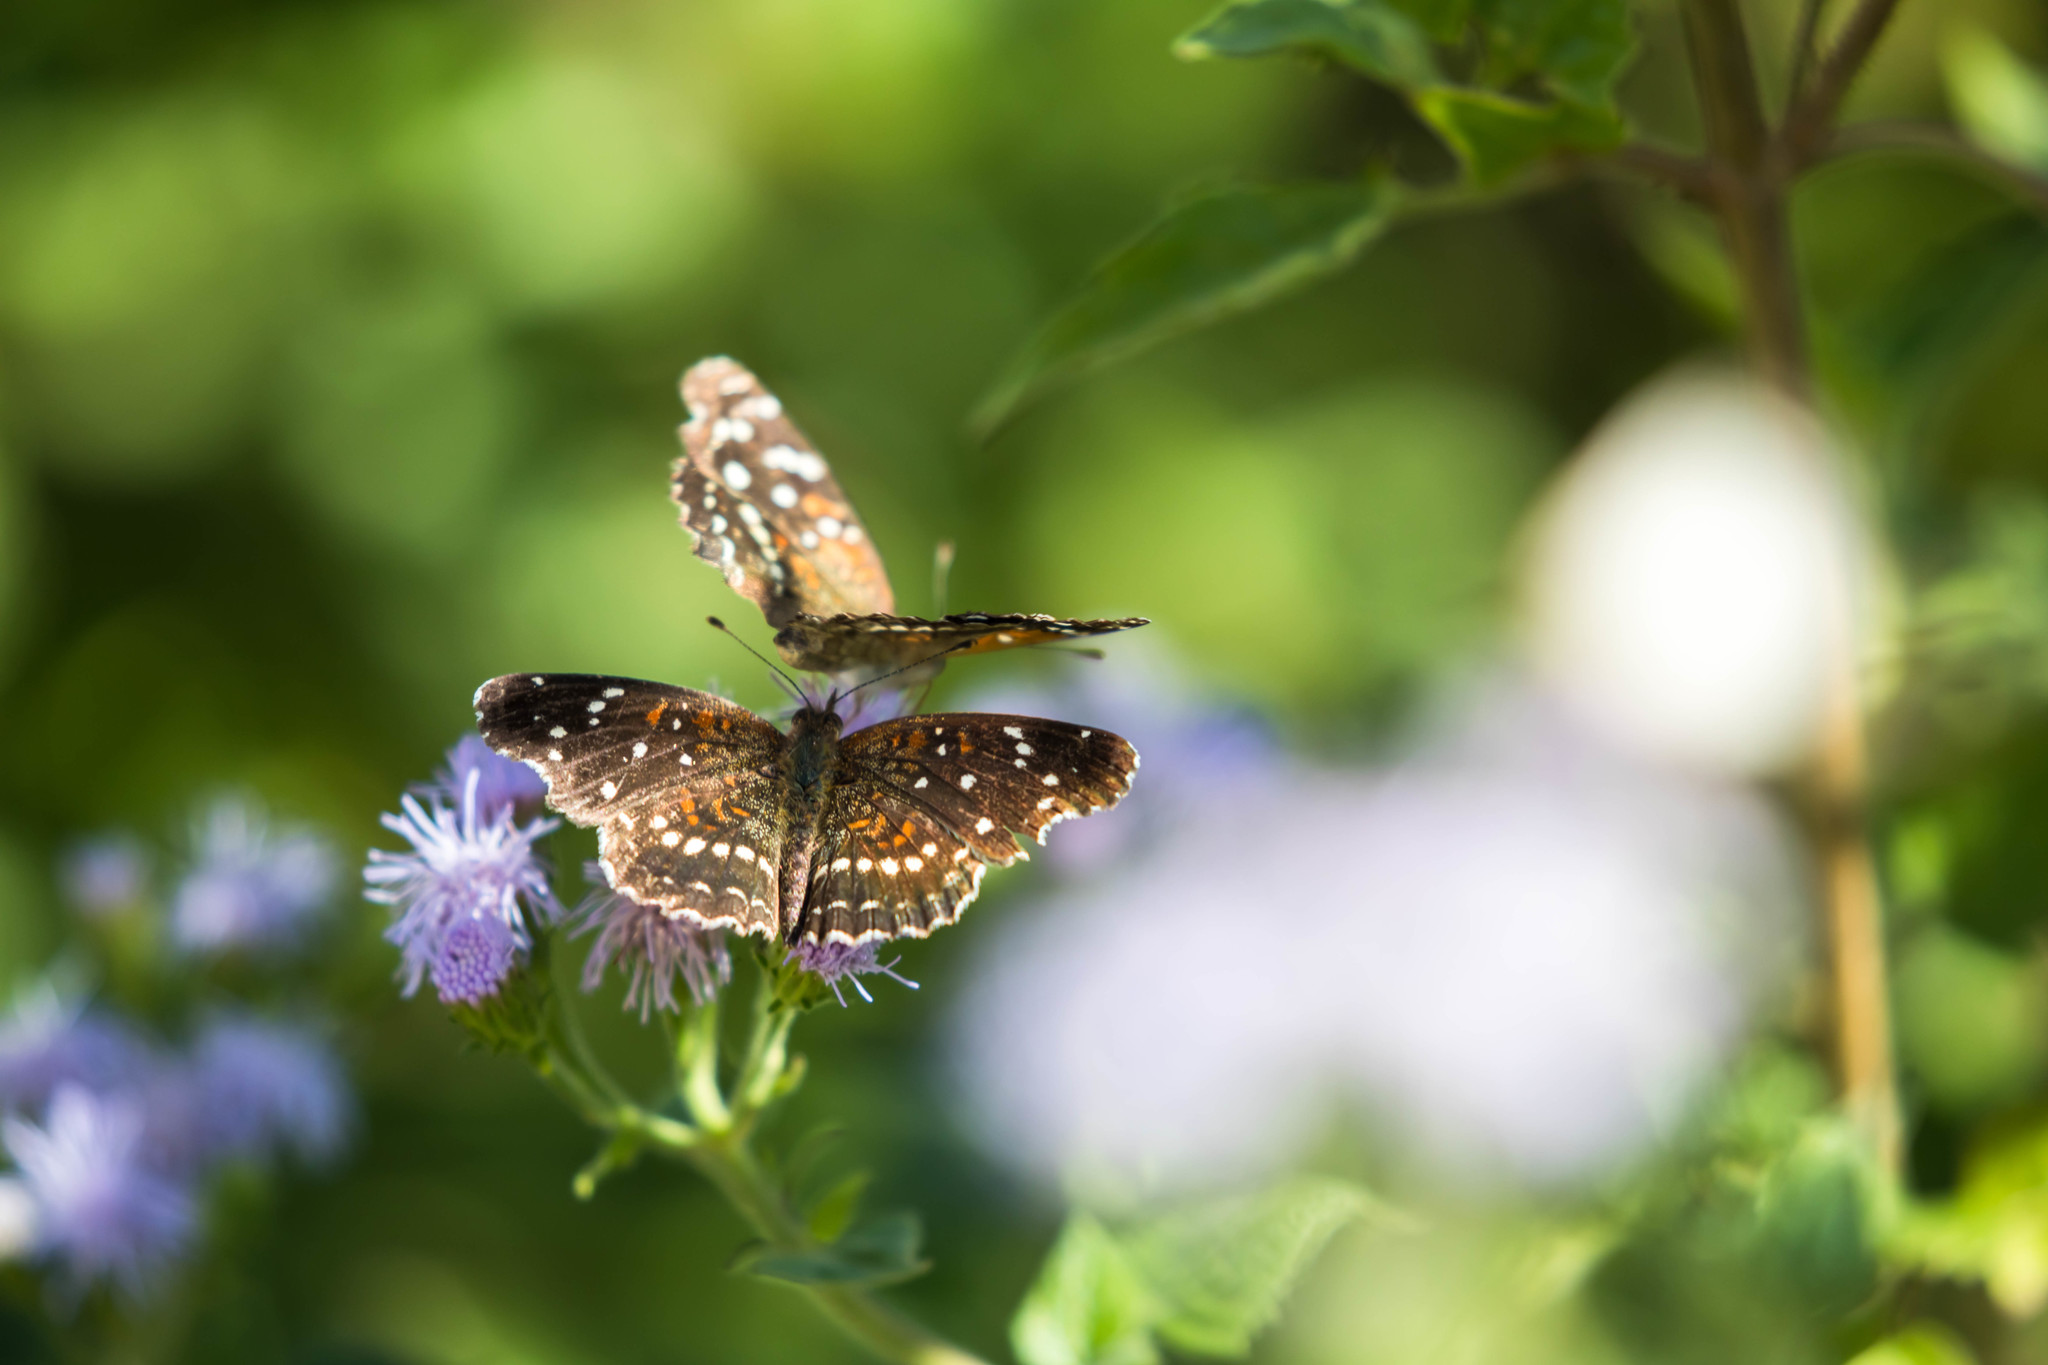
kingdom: Animalia
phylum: Arthropoda
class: Insecta
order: Lepidoptera
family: Nymphalidae
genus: Anthanassa
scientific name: Anthanassa texana
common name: Texan crescent
